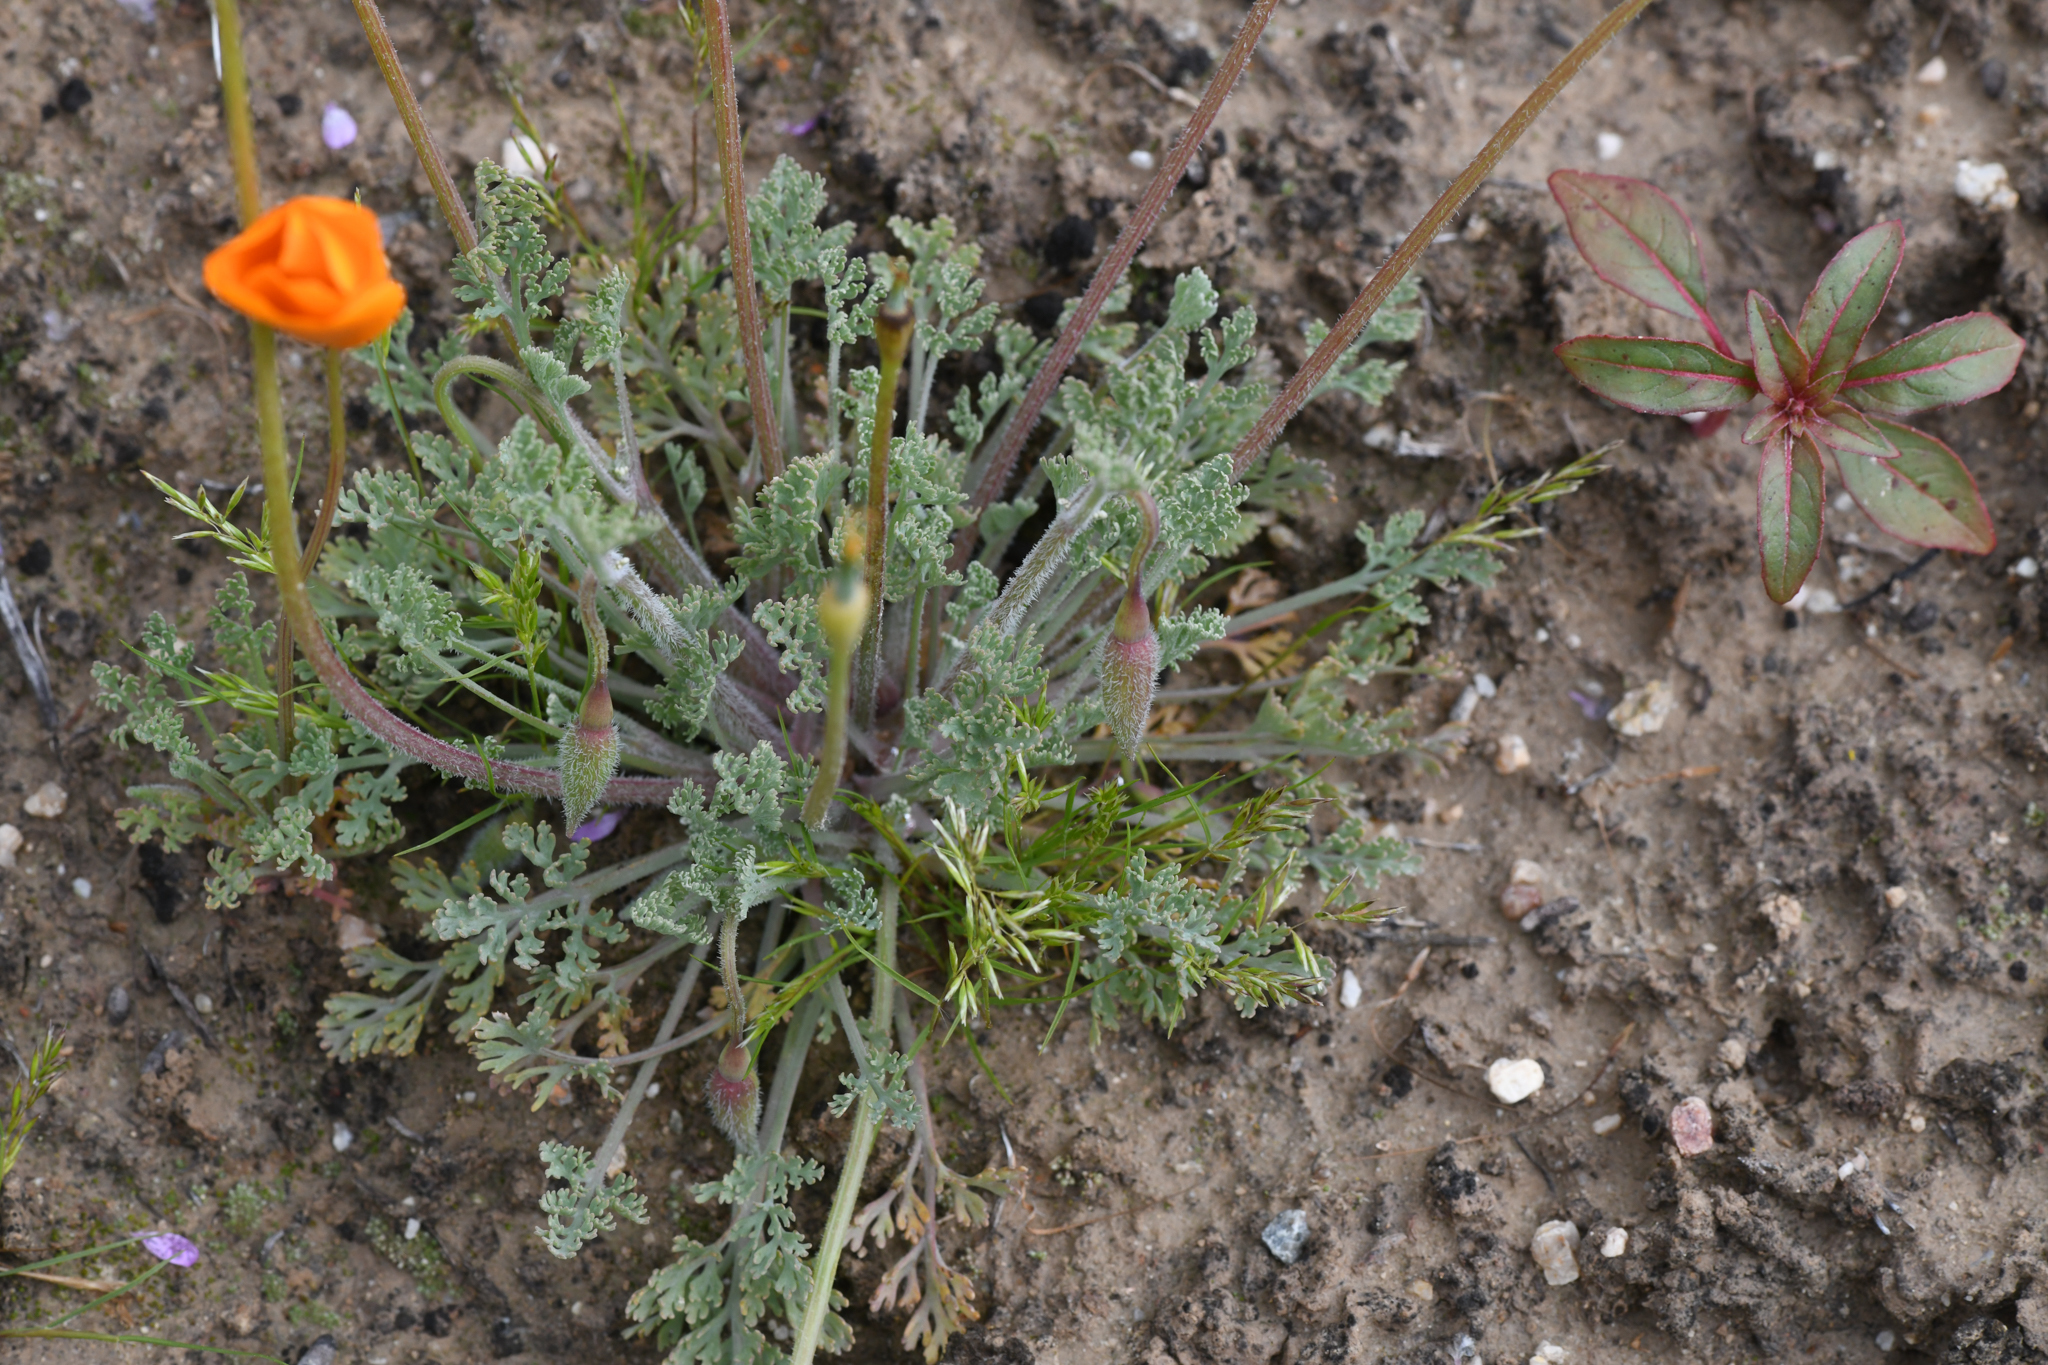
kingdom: Plantae
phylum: Tracheophyta
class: Magnoliopsida
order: Ranunculales
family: Papaveraceae
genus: Eschscholzia
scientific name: Eschscholzia lemmonii
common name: Lemmon's poppy
